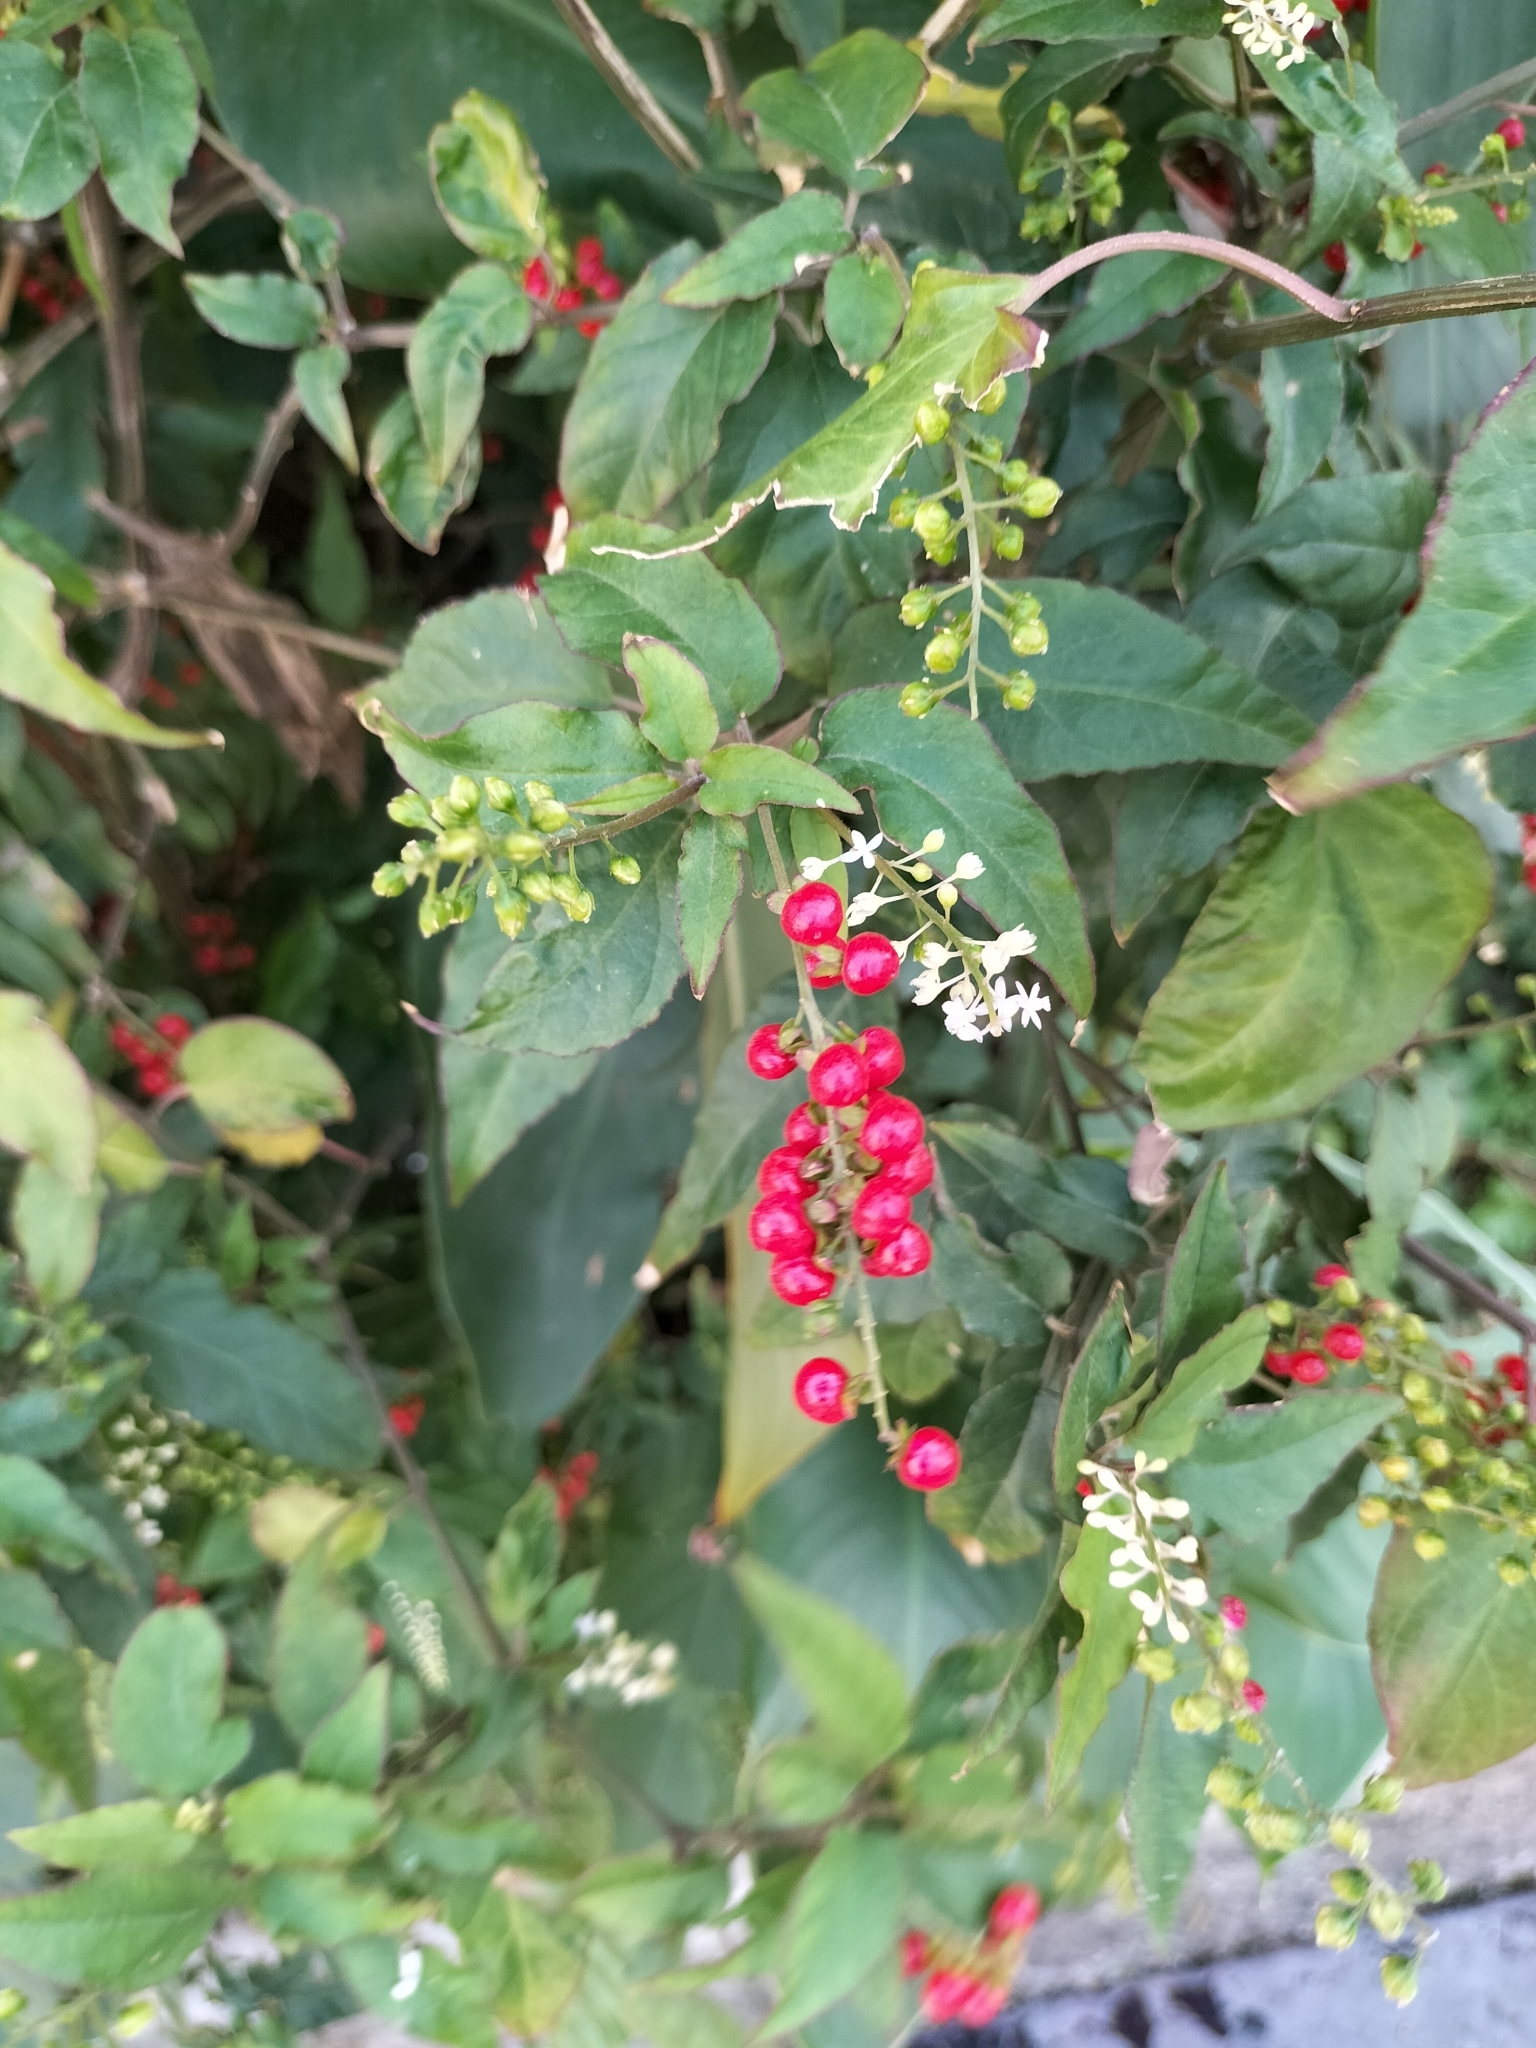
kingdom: Plantae
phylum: Tracheophyta
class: Magnoliopsida
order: Caryophyllales
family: Phytolaccaceae
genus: Rivina
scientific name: Rivina humilis
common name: Rougeplant
